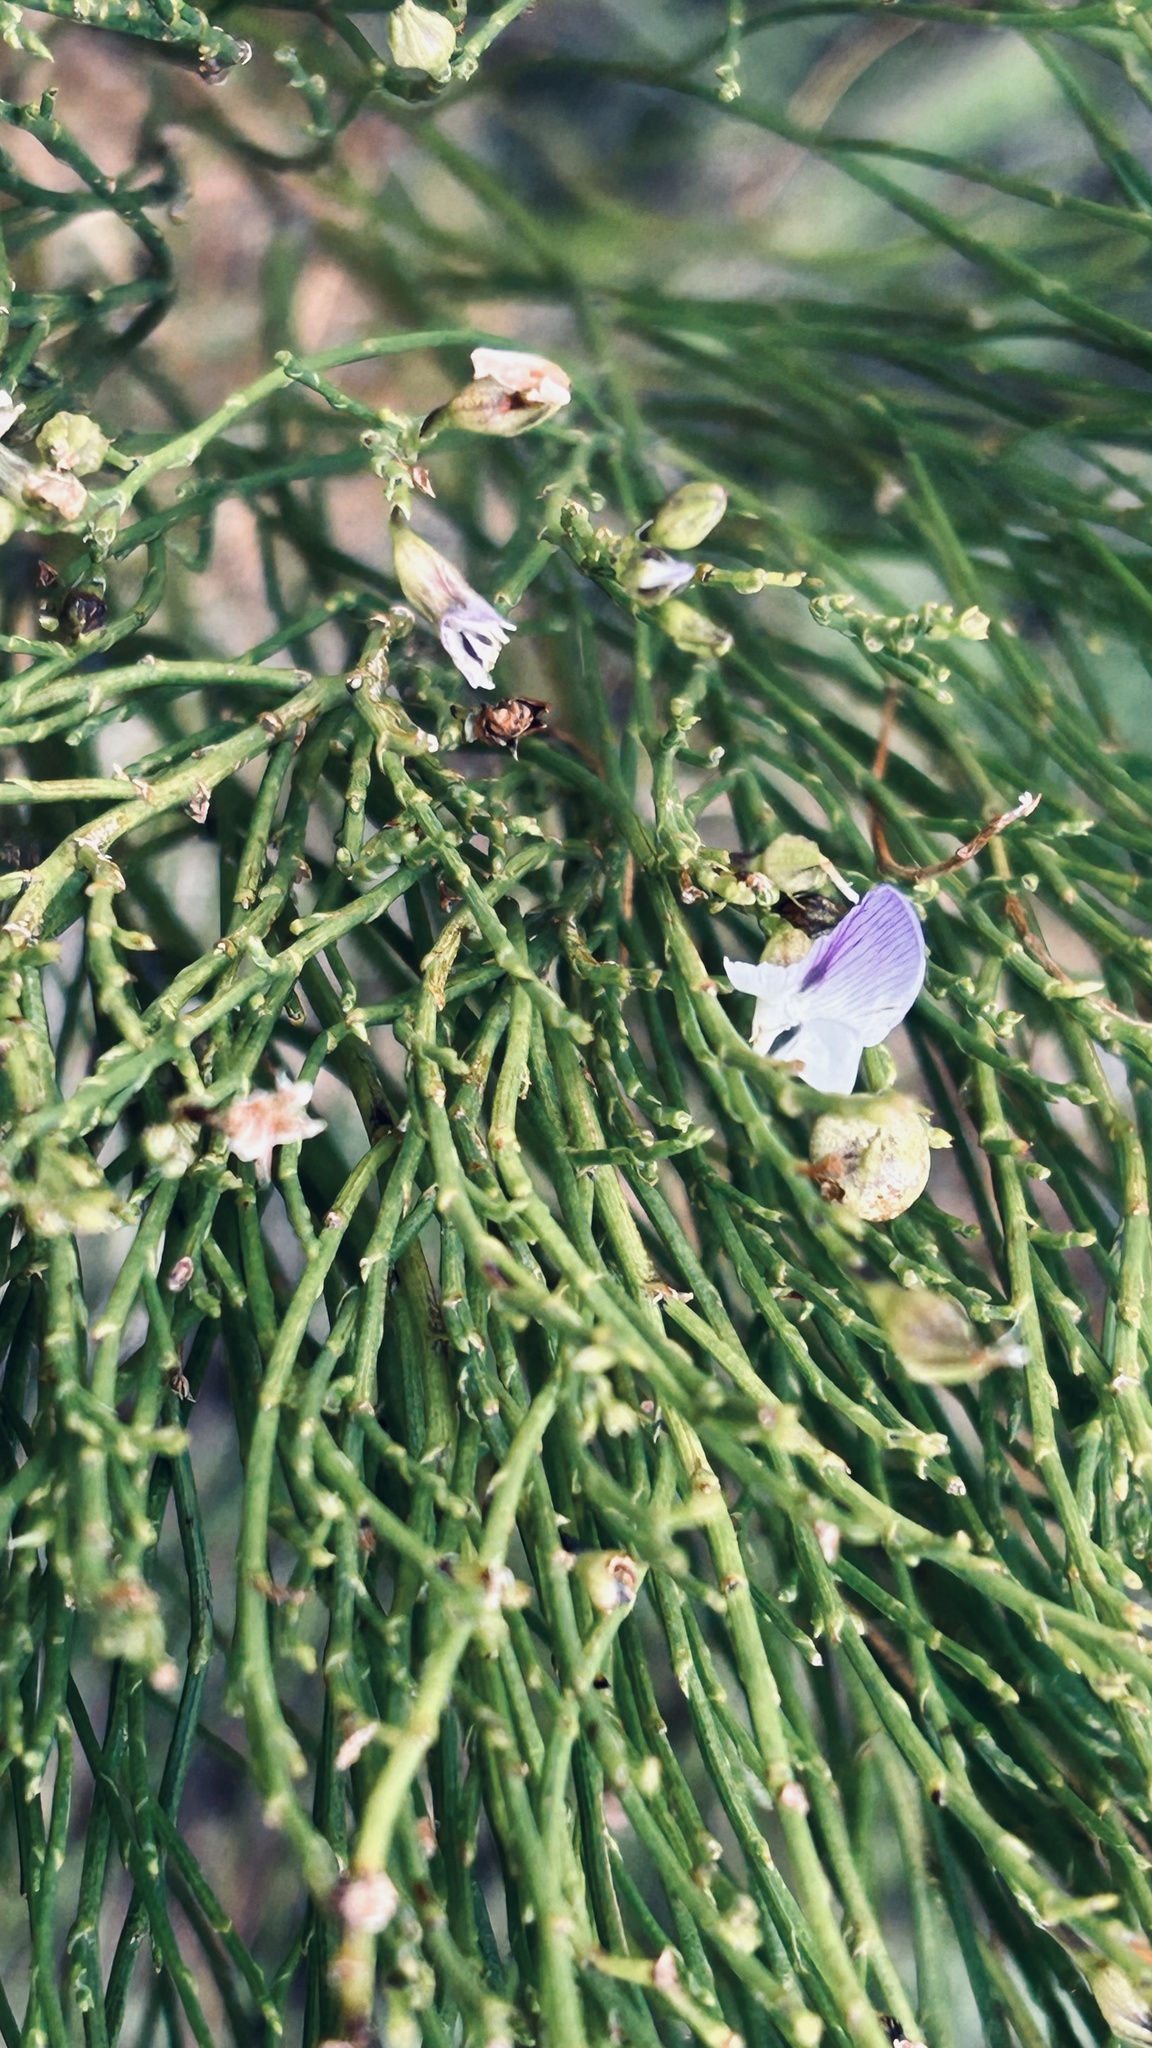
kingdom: Plantae
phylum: Tracheophyta
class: Magnoliopsida
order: Fabales
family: Fabaceae
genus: Psoralea
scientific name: Psoralea usitata
